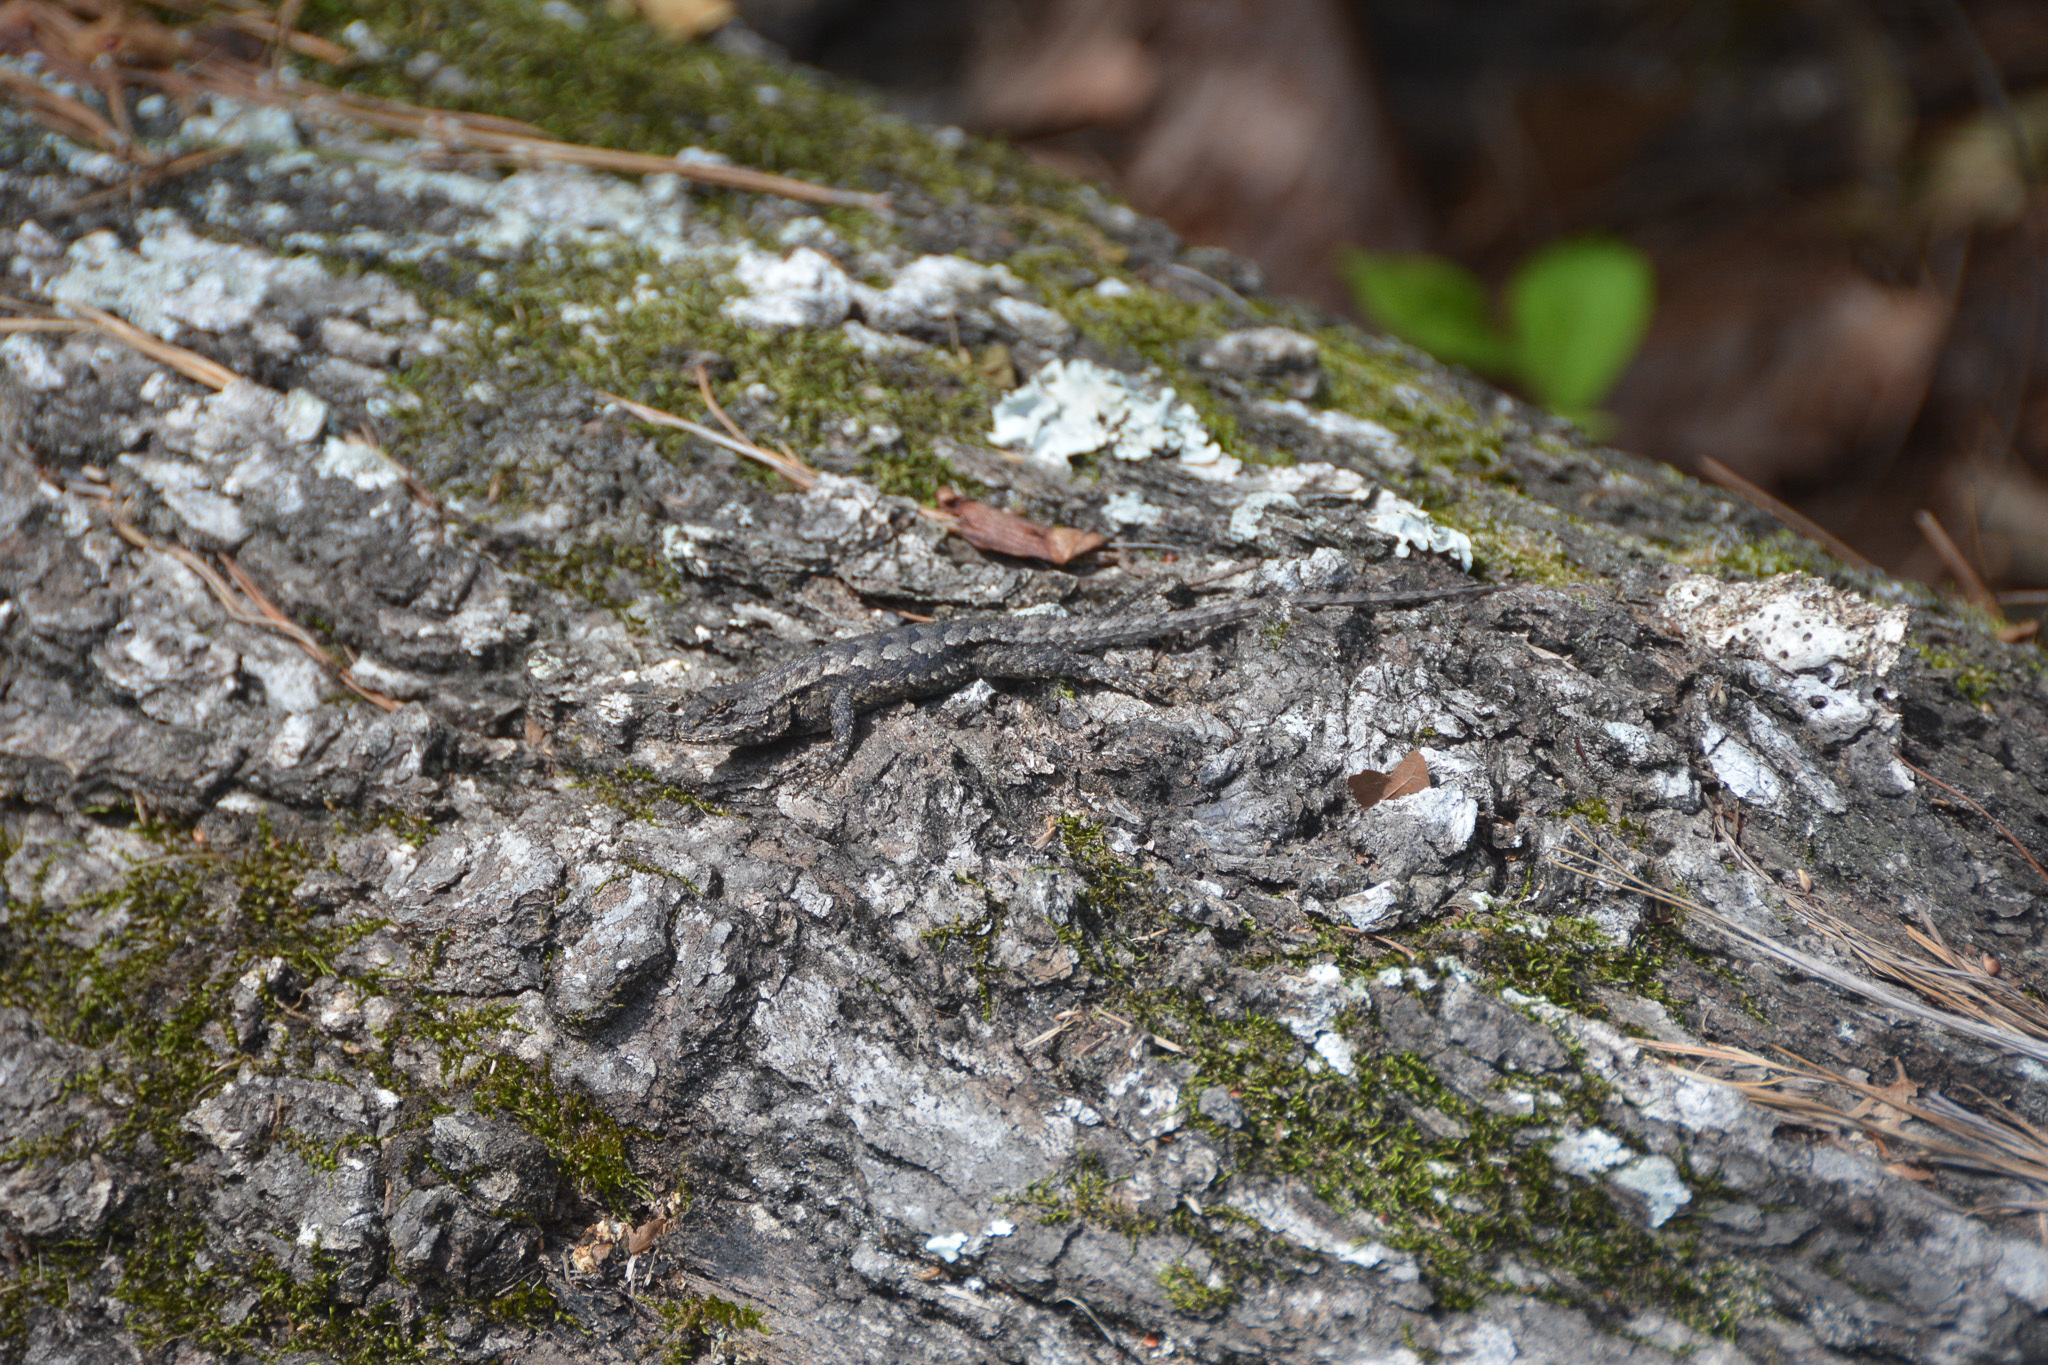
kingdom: Animalia
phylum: Chordata
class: Squamata
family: Phrynosomatidae
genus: Sceloporus
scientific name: Sceloporus consobrinus
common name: Southern prairie lizard
